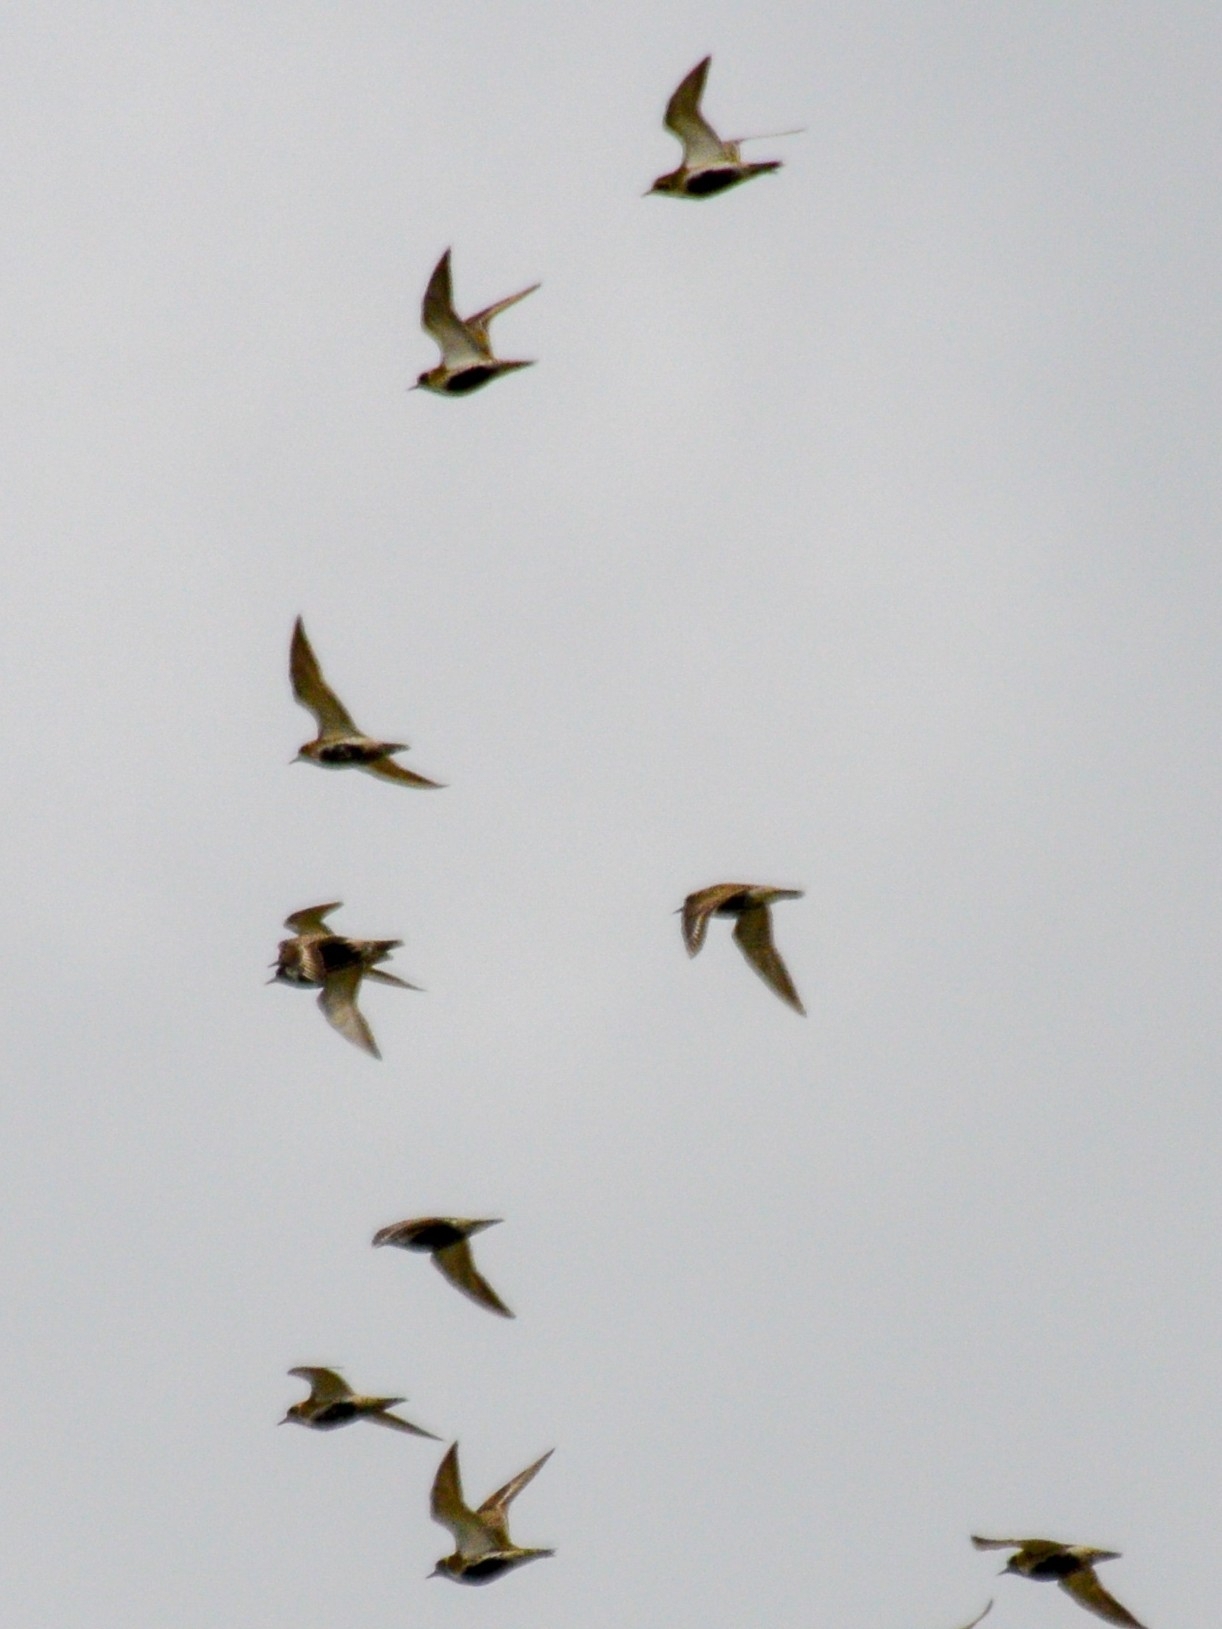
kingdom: Animalia
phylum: Chordata
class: Aves
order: Charadriiformes
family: Charadriidae
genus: Pluvialis
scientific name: Pluvialis apricaria
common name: European golden plover
